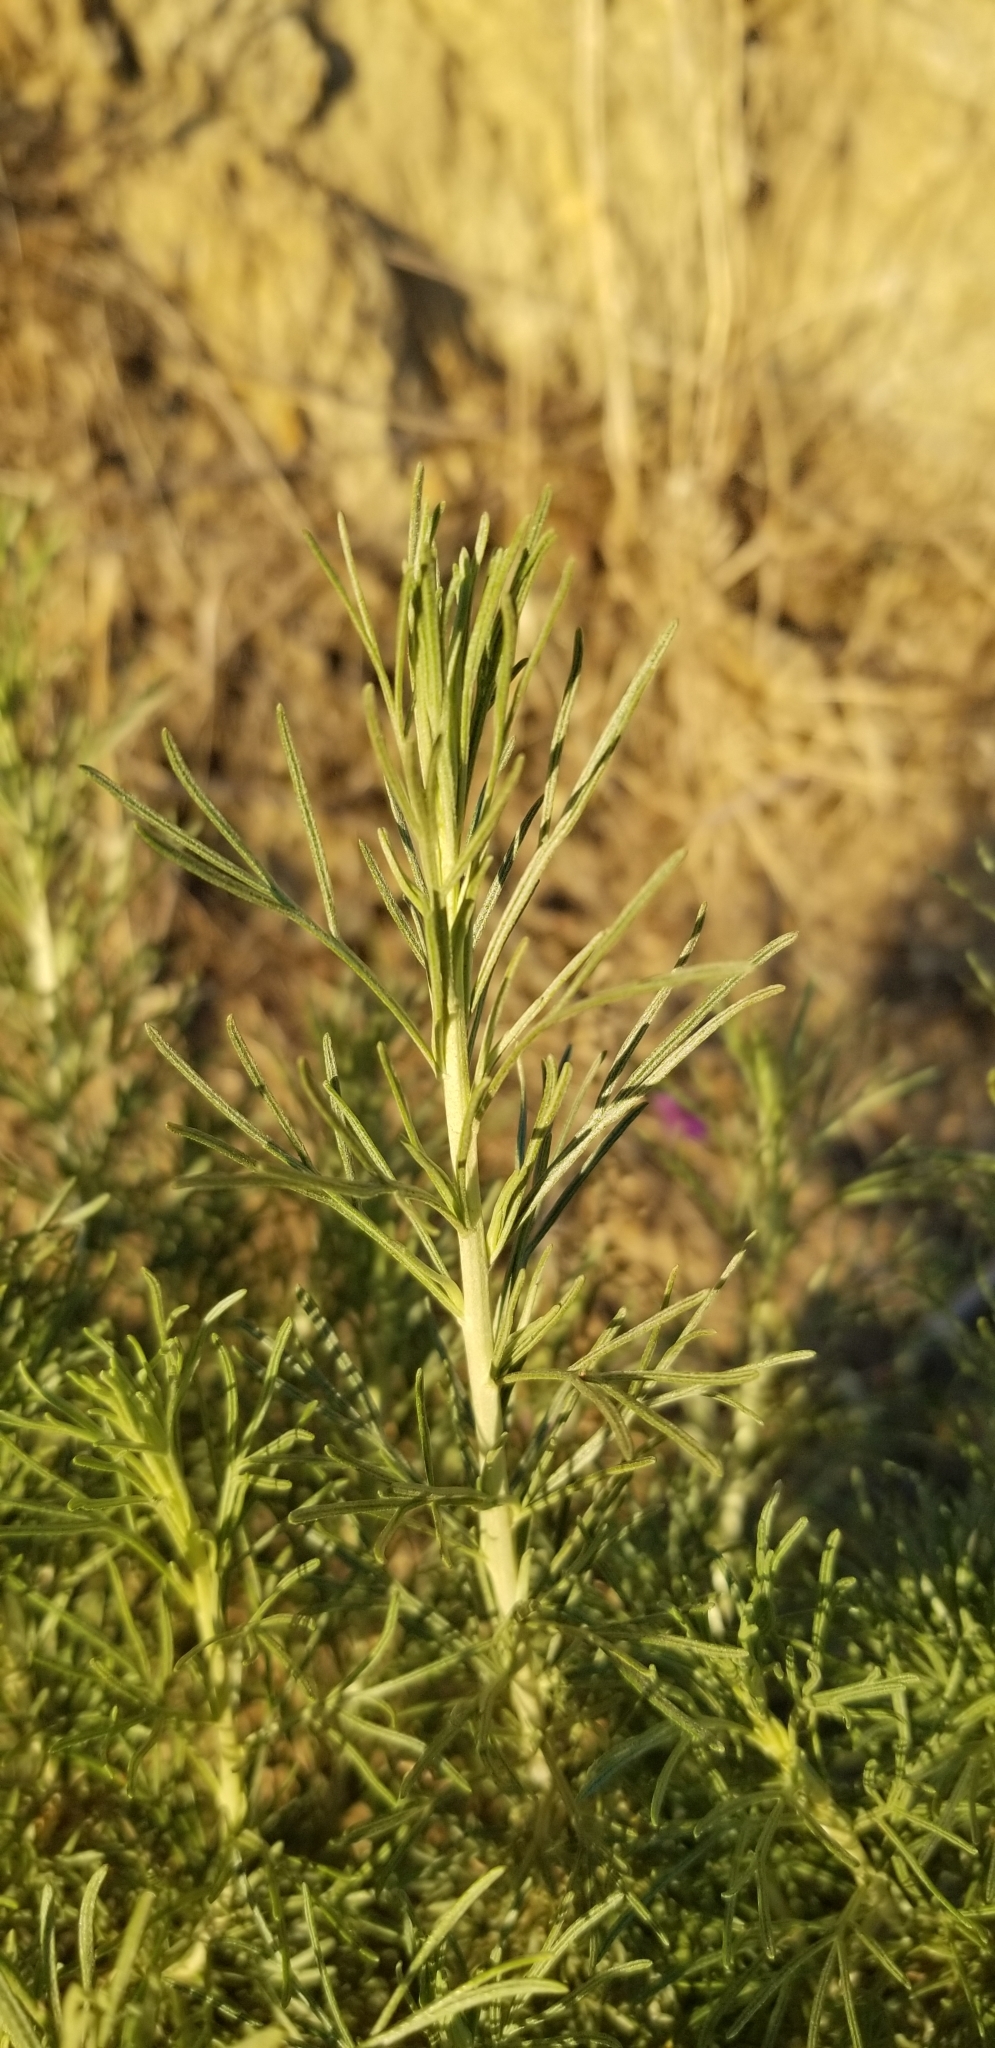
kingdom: Plantae
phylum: Tracheophyta
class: Magnoliopsida
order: Asterales
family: Asteraceae
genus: Artemisia
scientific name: Artemisia californica
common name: California sagebrush
